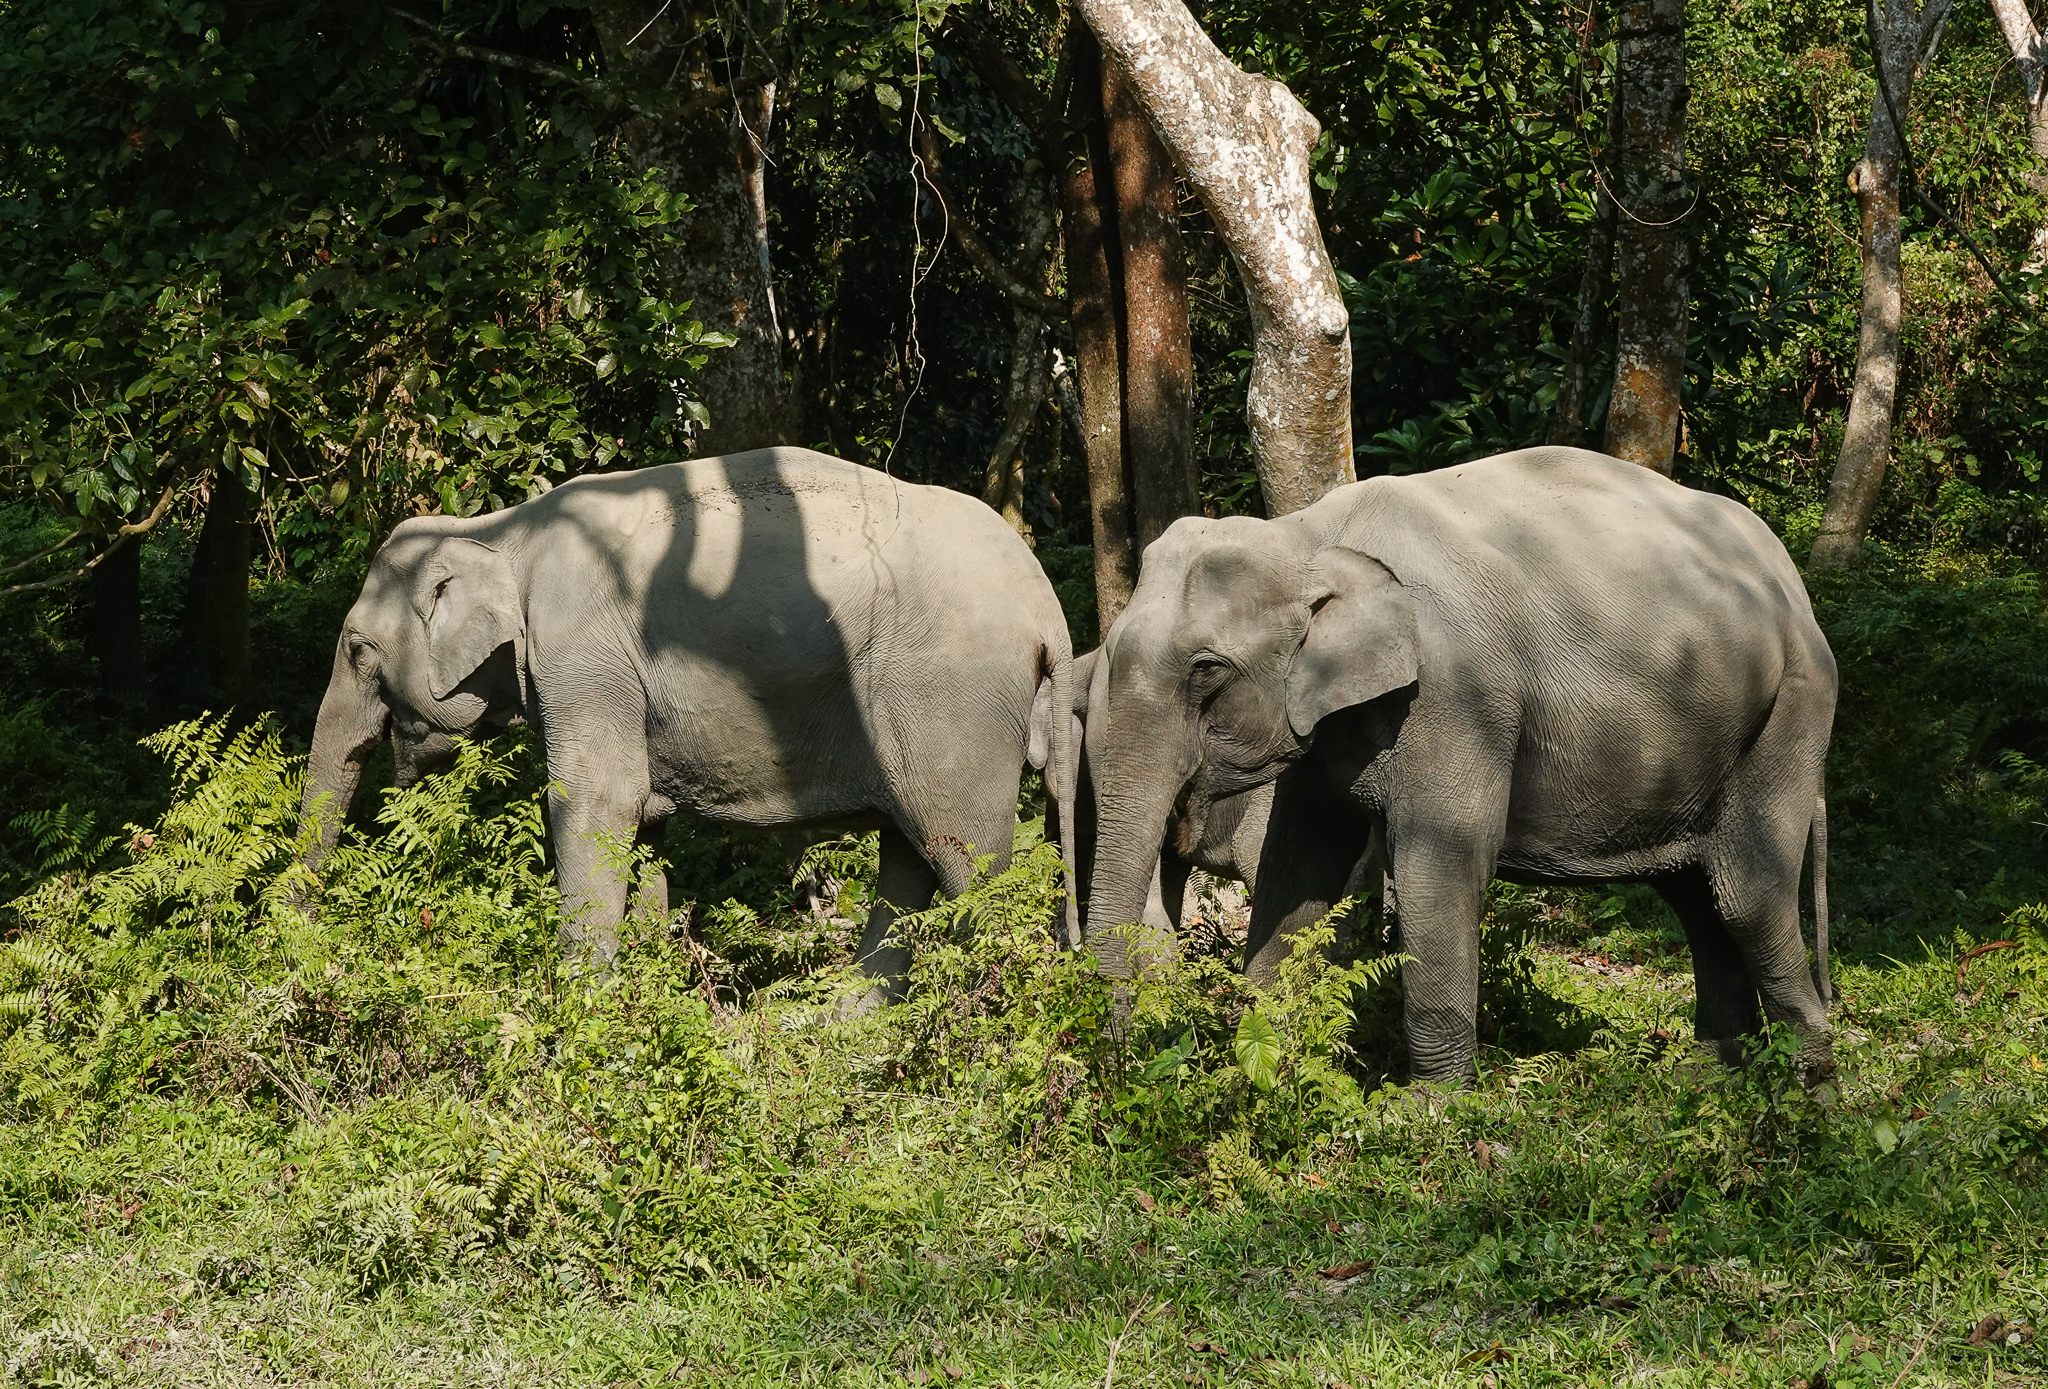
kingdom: Animalia
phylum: Chordata
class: Mammalia
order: Proboscidea
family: Elephantidae
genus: Elephas
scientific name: Elephas maximus
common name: Asian elephant
